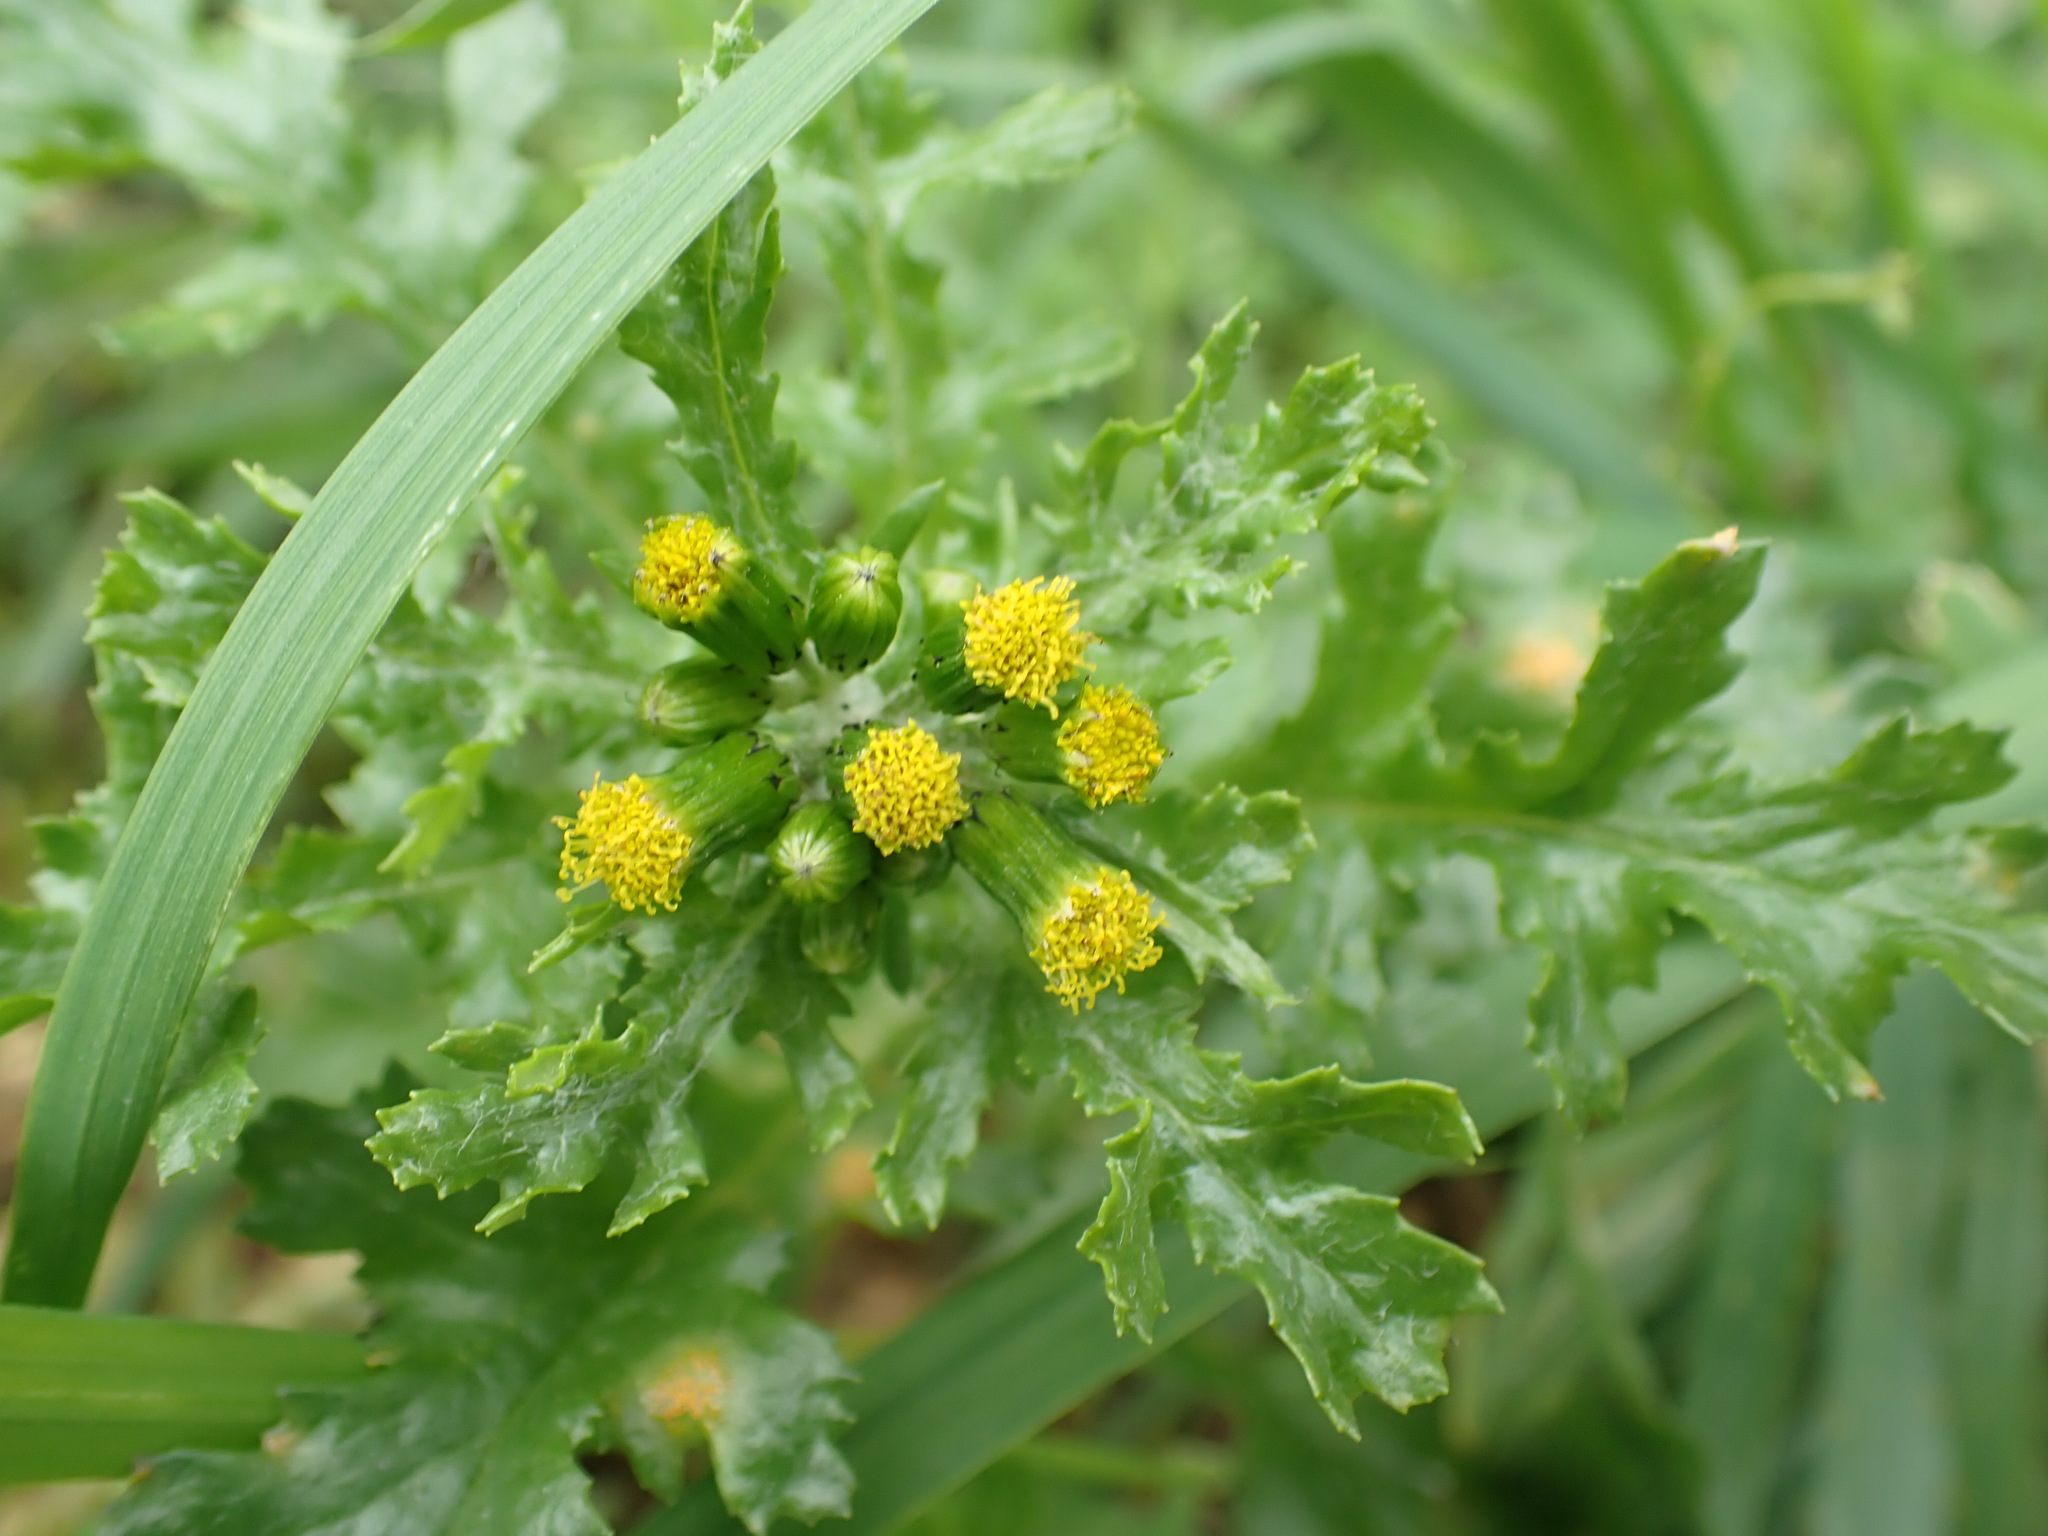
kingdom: Plantae
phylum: Tracheophyta
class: Magnoliopsida
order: Asterales
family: Asteraceae
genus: Senecio
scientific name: Senecio vulgaris
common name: Old-man-in-the-spring
